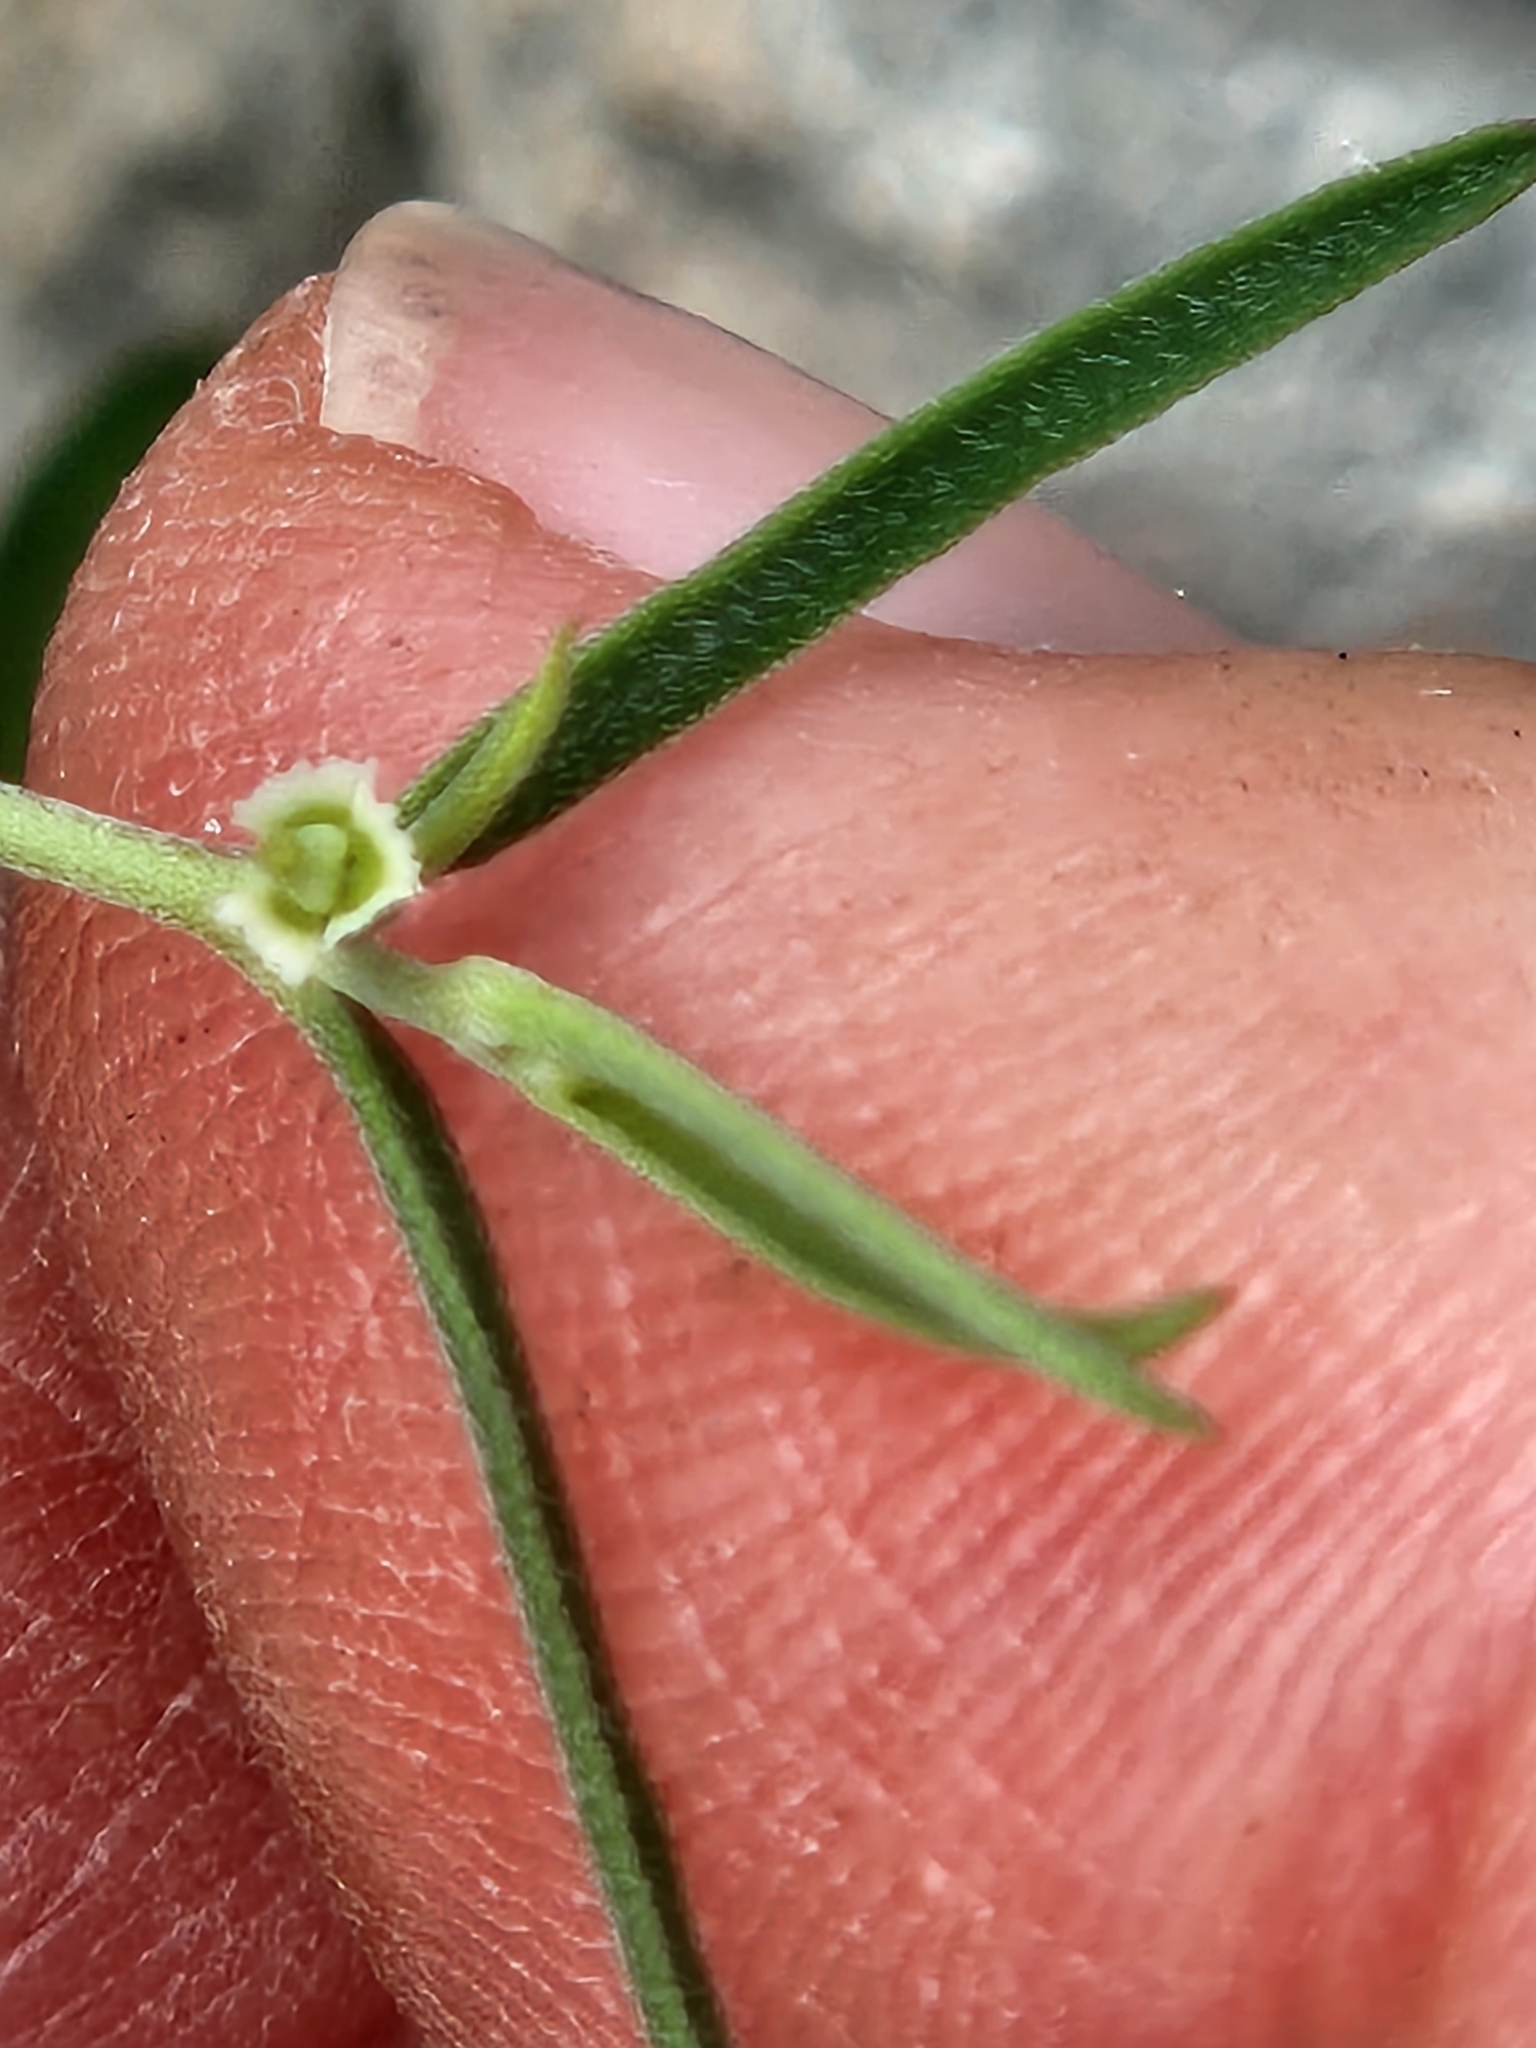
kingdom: Plantae
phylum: Tracheophyta
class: Magnoliopsida
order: Malpighiales
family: Euphorbiaceae
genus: Euphorbia
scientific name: Euphorbia angusta
